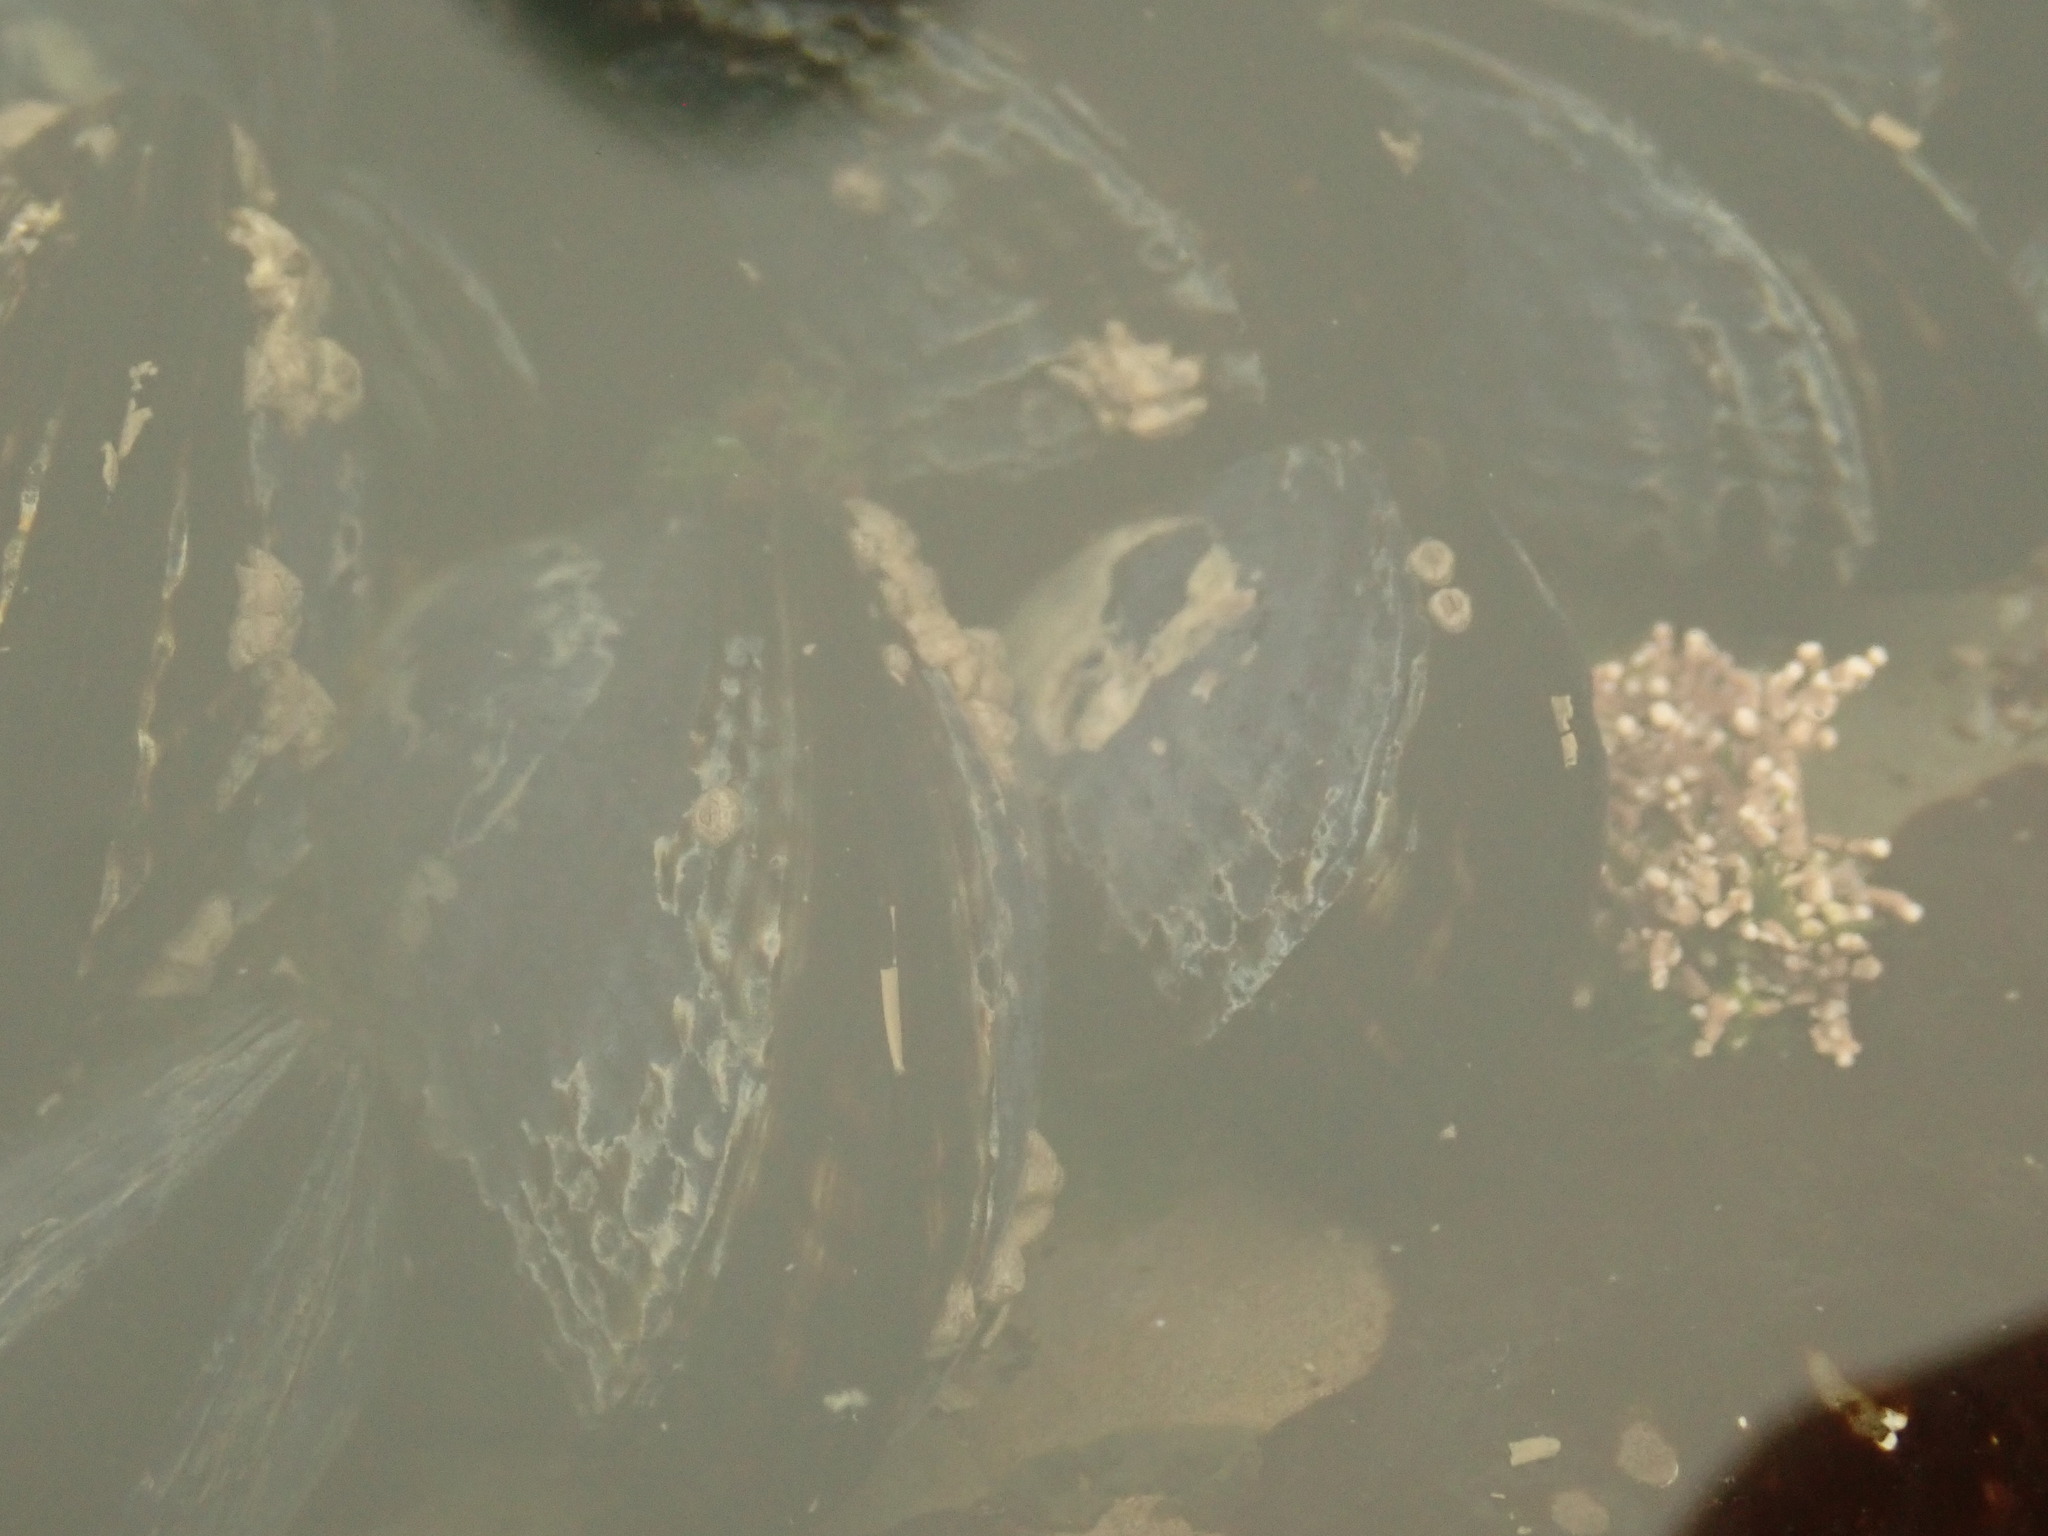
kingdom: Animalia
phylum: Mollusca
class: Bivalvia
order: Mytilida
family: Mytilidae
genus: Mytilus
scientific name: Mytilus californianus
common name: California mussel
